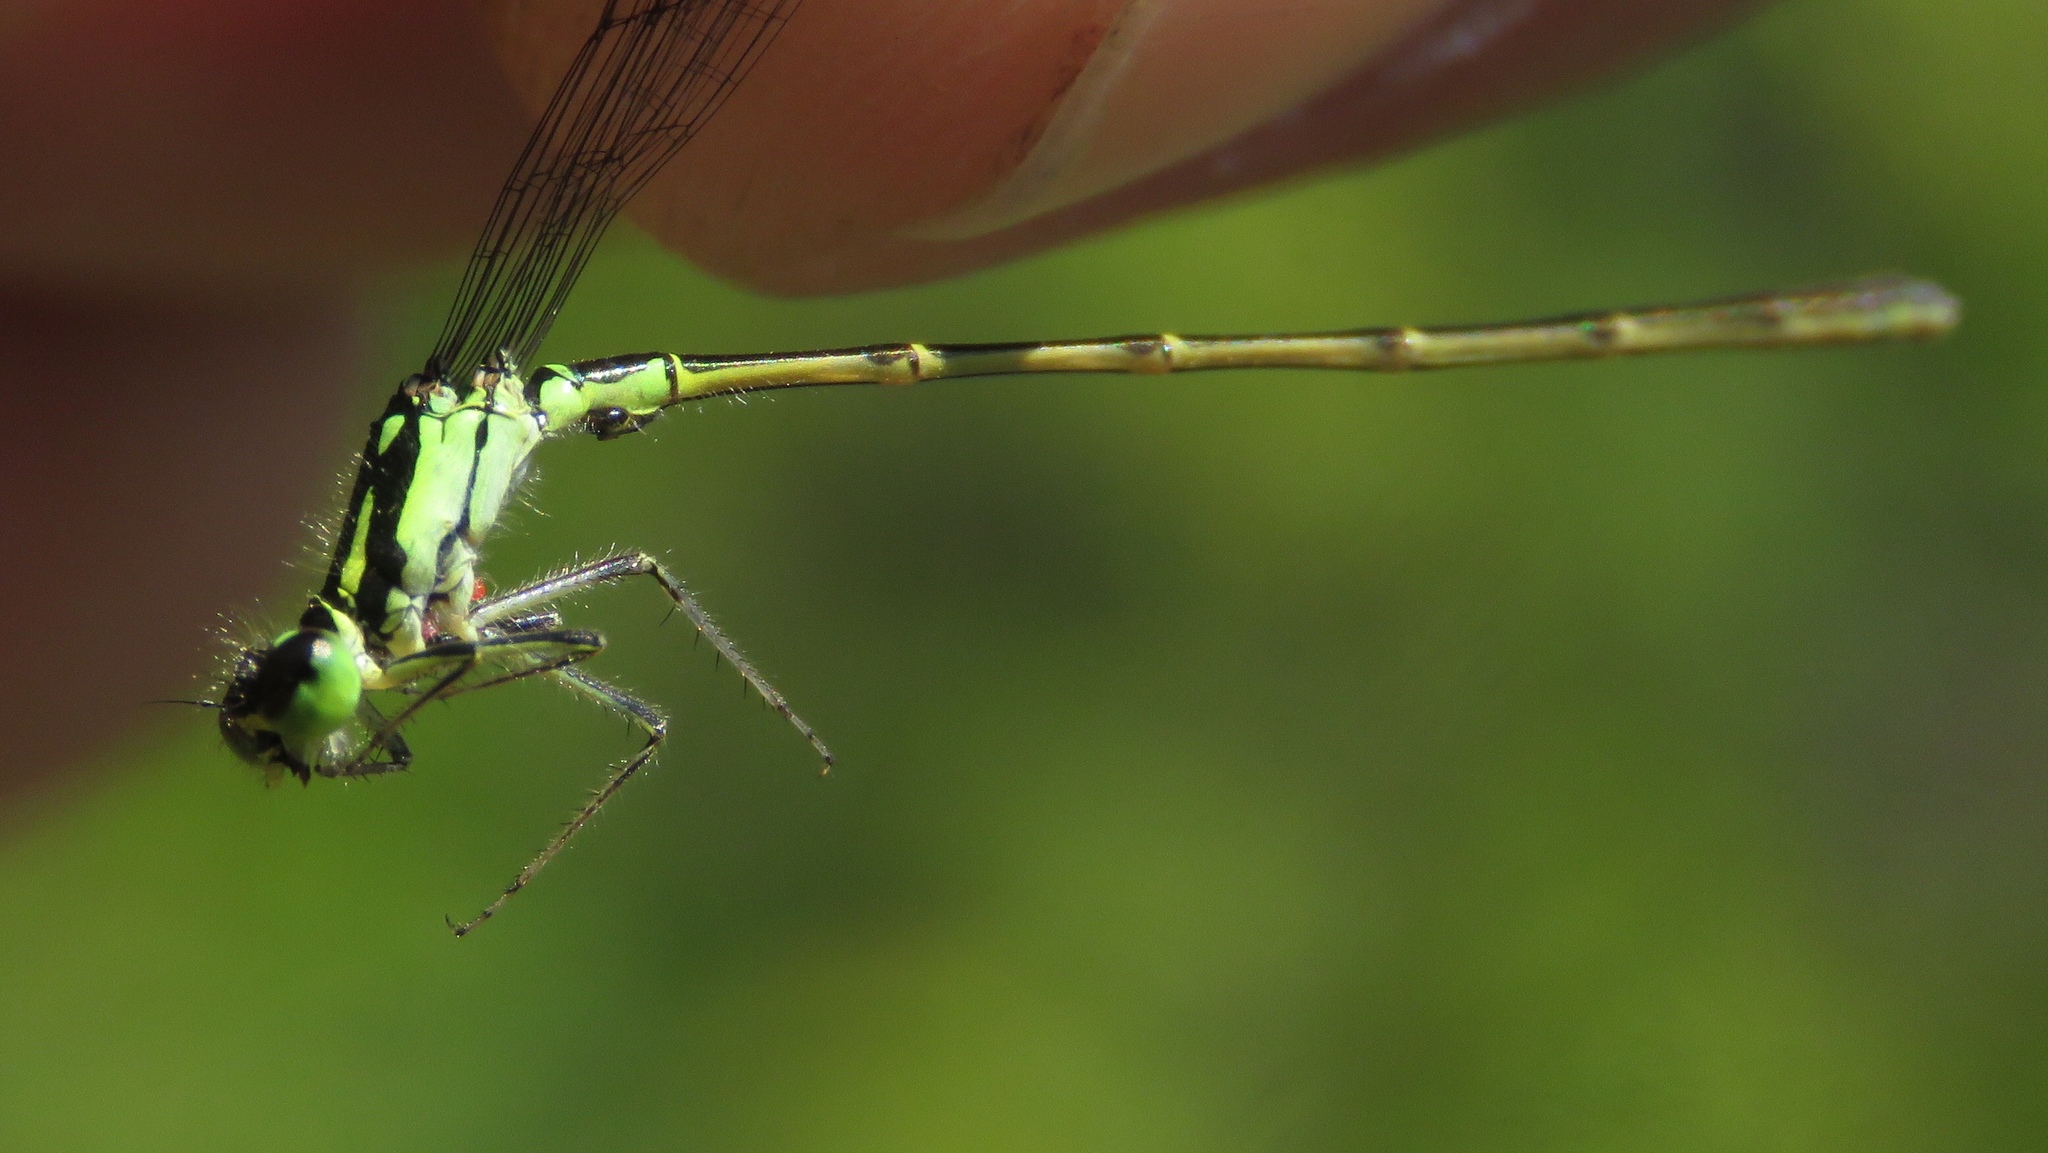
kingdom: Animalia
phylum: Arthropoda
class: Insecta
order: Odonata
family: Coenagrionidae
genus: Ischnura
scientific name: Ischnura posita
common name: Fragile forktail
